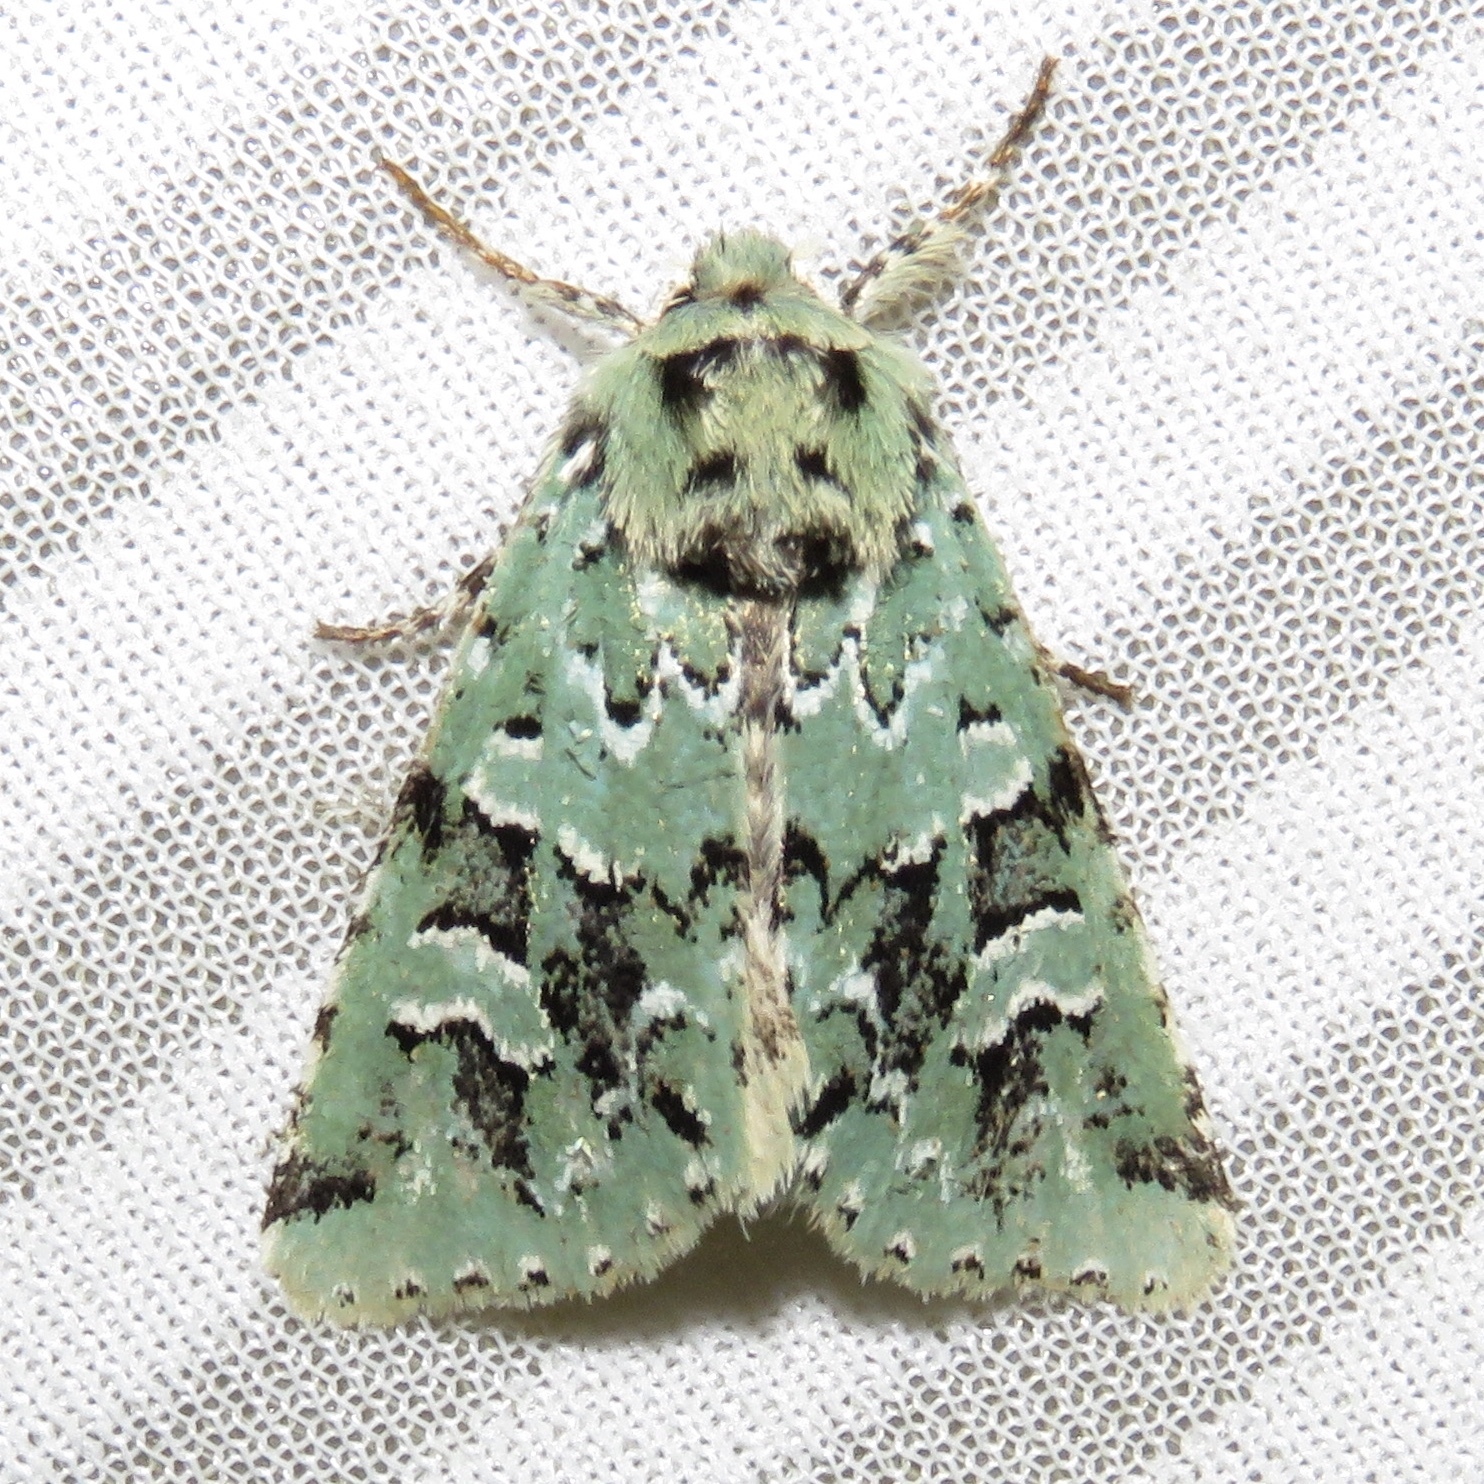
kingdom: Animalia
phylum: Arthropoda
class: Insecta
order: Lepidoptera
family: Noctuidae
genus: Feralia
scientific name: Feralia comstocki
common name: Comstock's sallow
